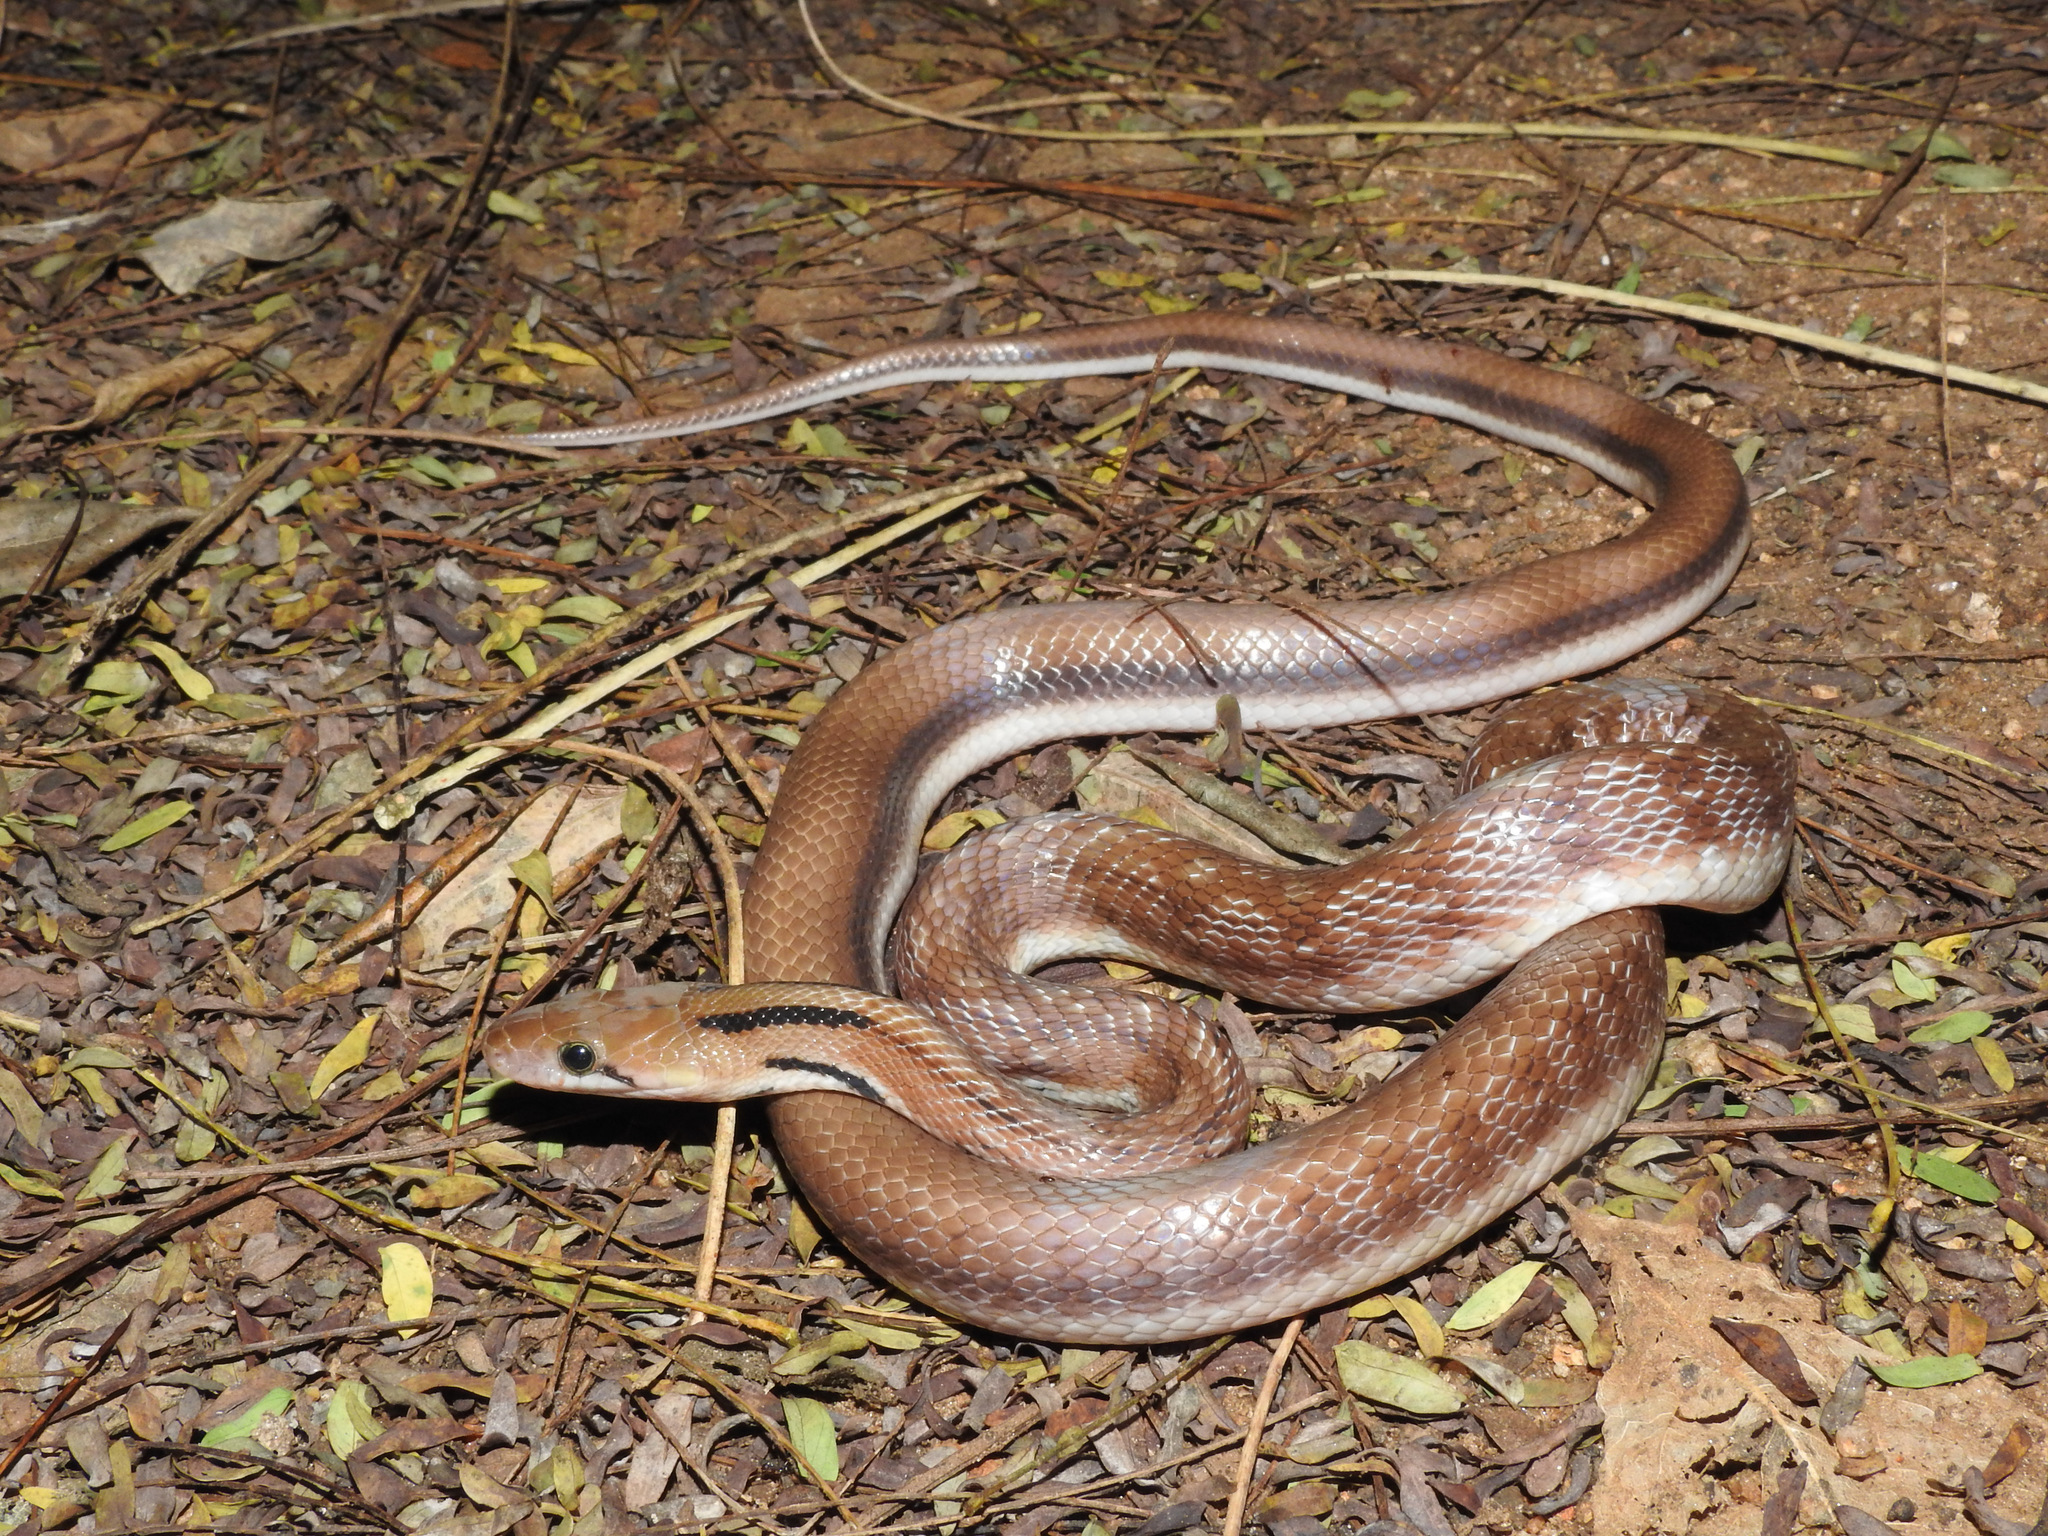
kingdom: Animalia
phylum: Chordata
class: Squamata
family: Colubridae
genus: Coelognathus
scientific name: Coelognathus helena
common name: Trinket snake
